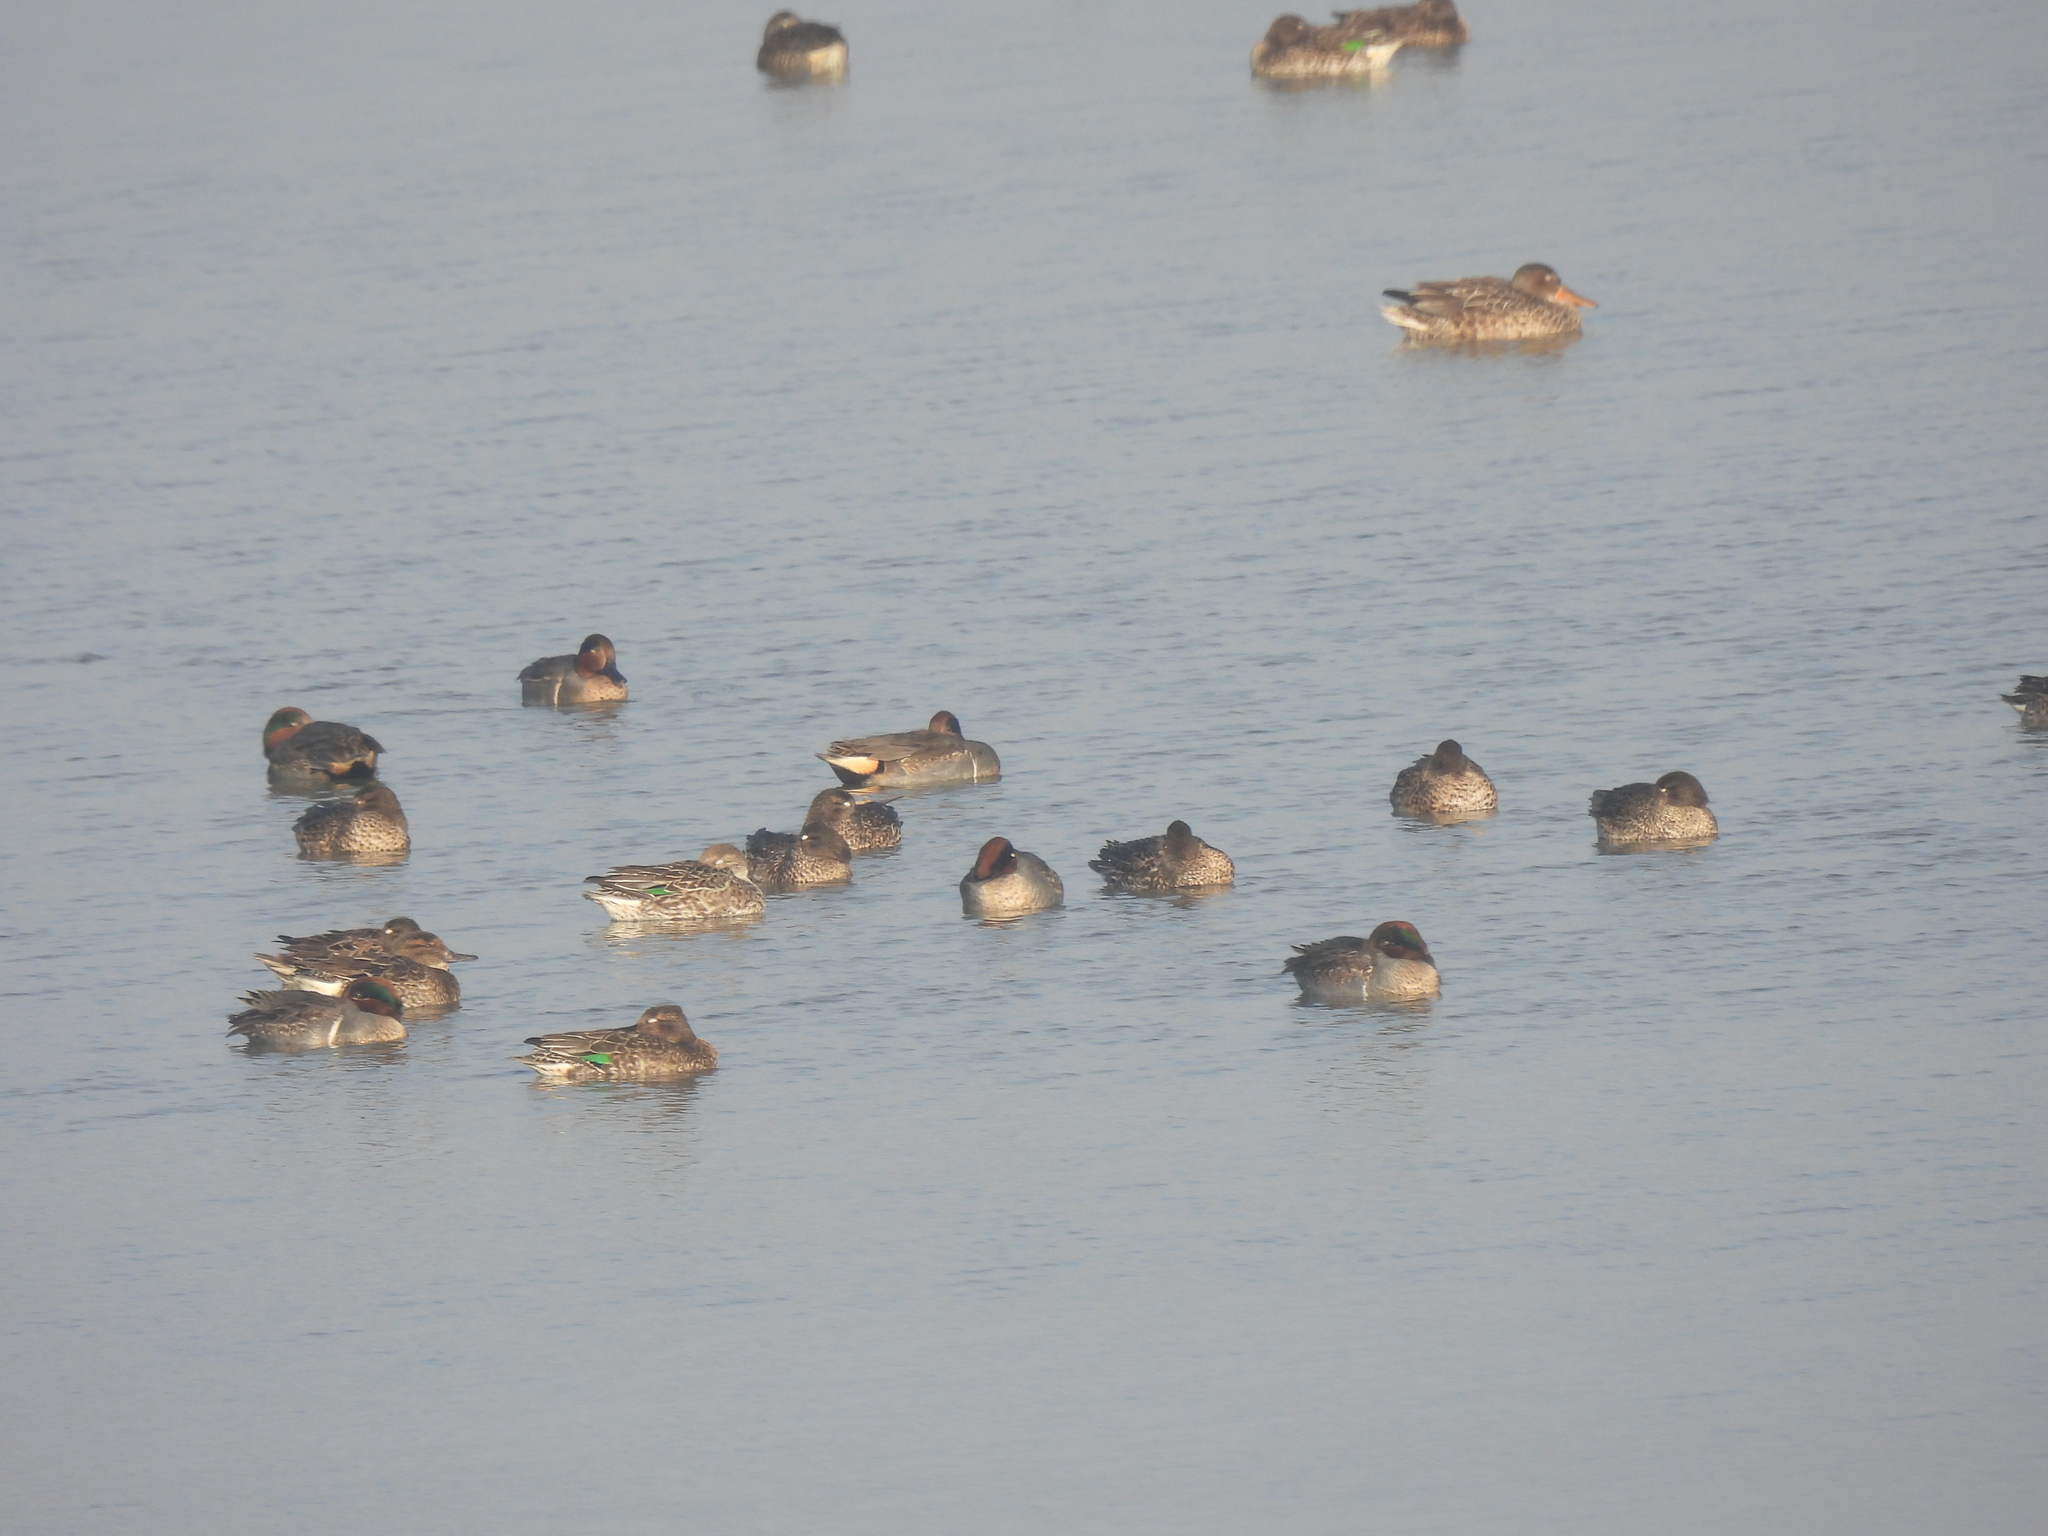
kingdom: Animalia
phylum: Chordata
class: Aves
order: Anseriformes
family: Anatidae
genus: Anas
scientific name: Anas crecca
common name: Eurasian teal
